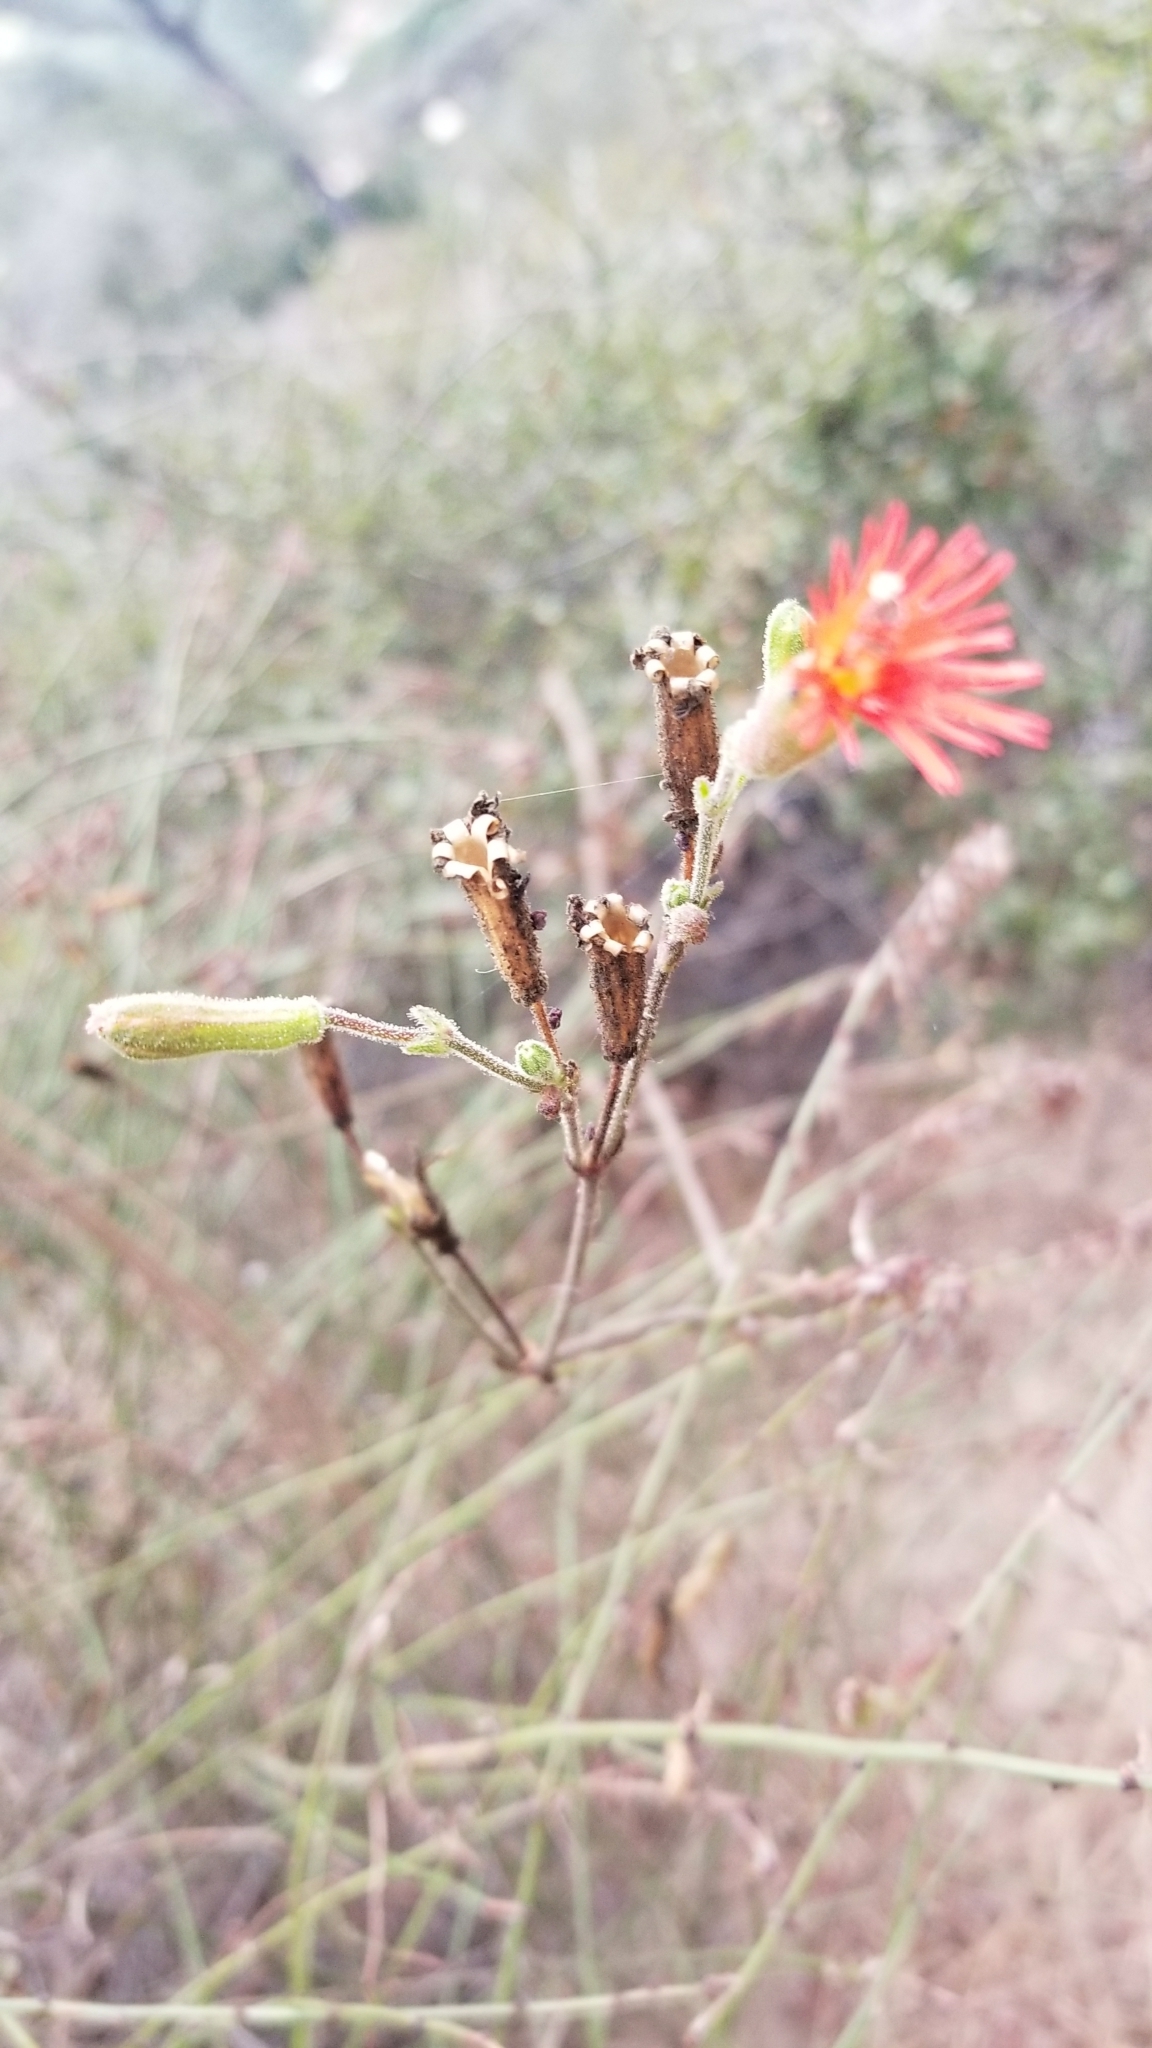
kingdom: Plantae
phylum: Tracheophyta
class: Magnoliopsida
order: Caryophyllales
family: Caryophyllaceae
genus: Silene
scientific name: Silene laciniata
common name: Indian-pink
